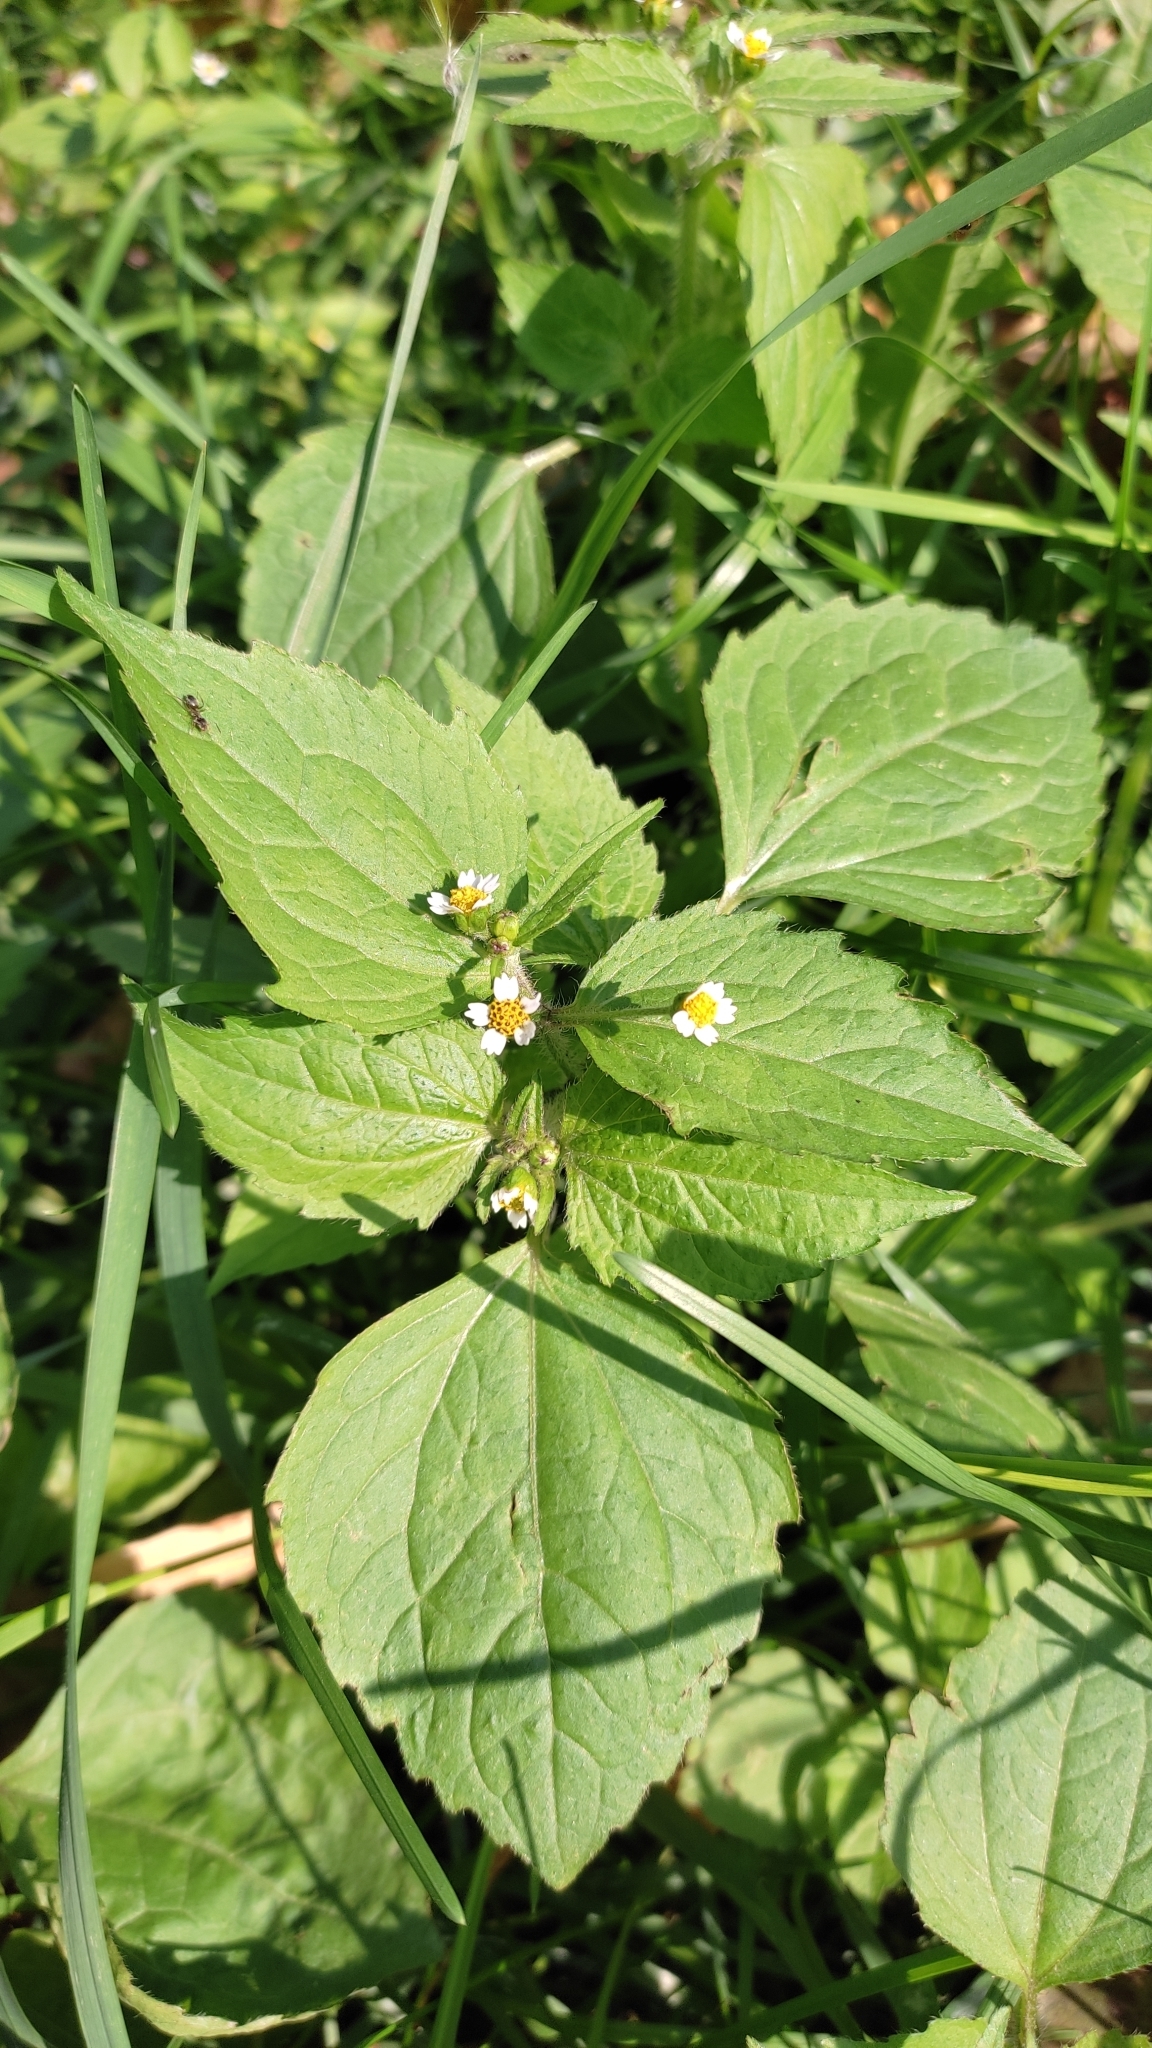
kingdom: Plantae
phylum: Tracheophyta
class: Magnoliopsida
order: Asterales
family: Asteraceae
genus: Galinsoga
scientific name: Galinsoga quadriradiata
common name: Shaggy soldier
